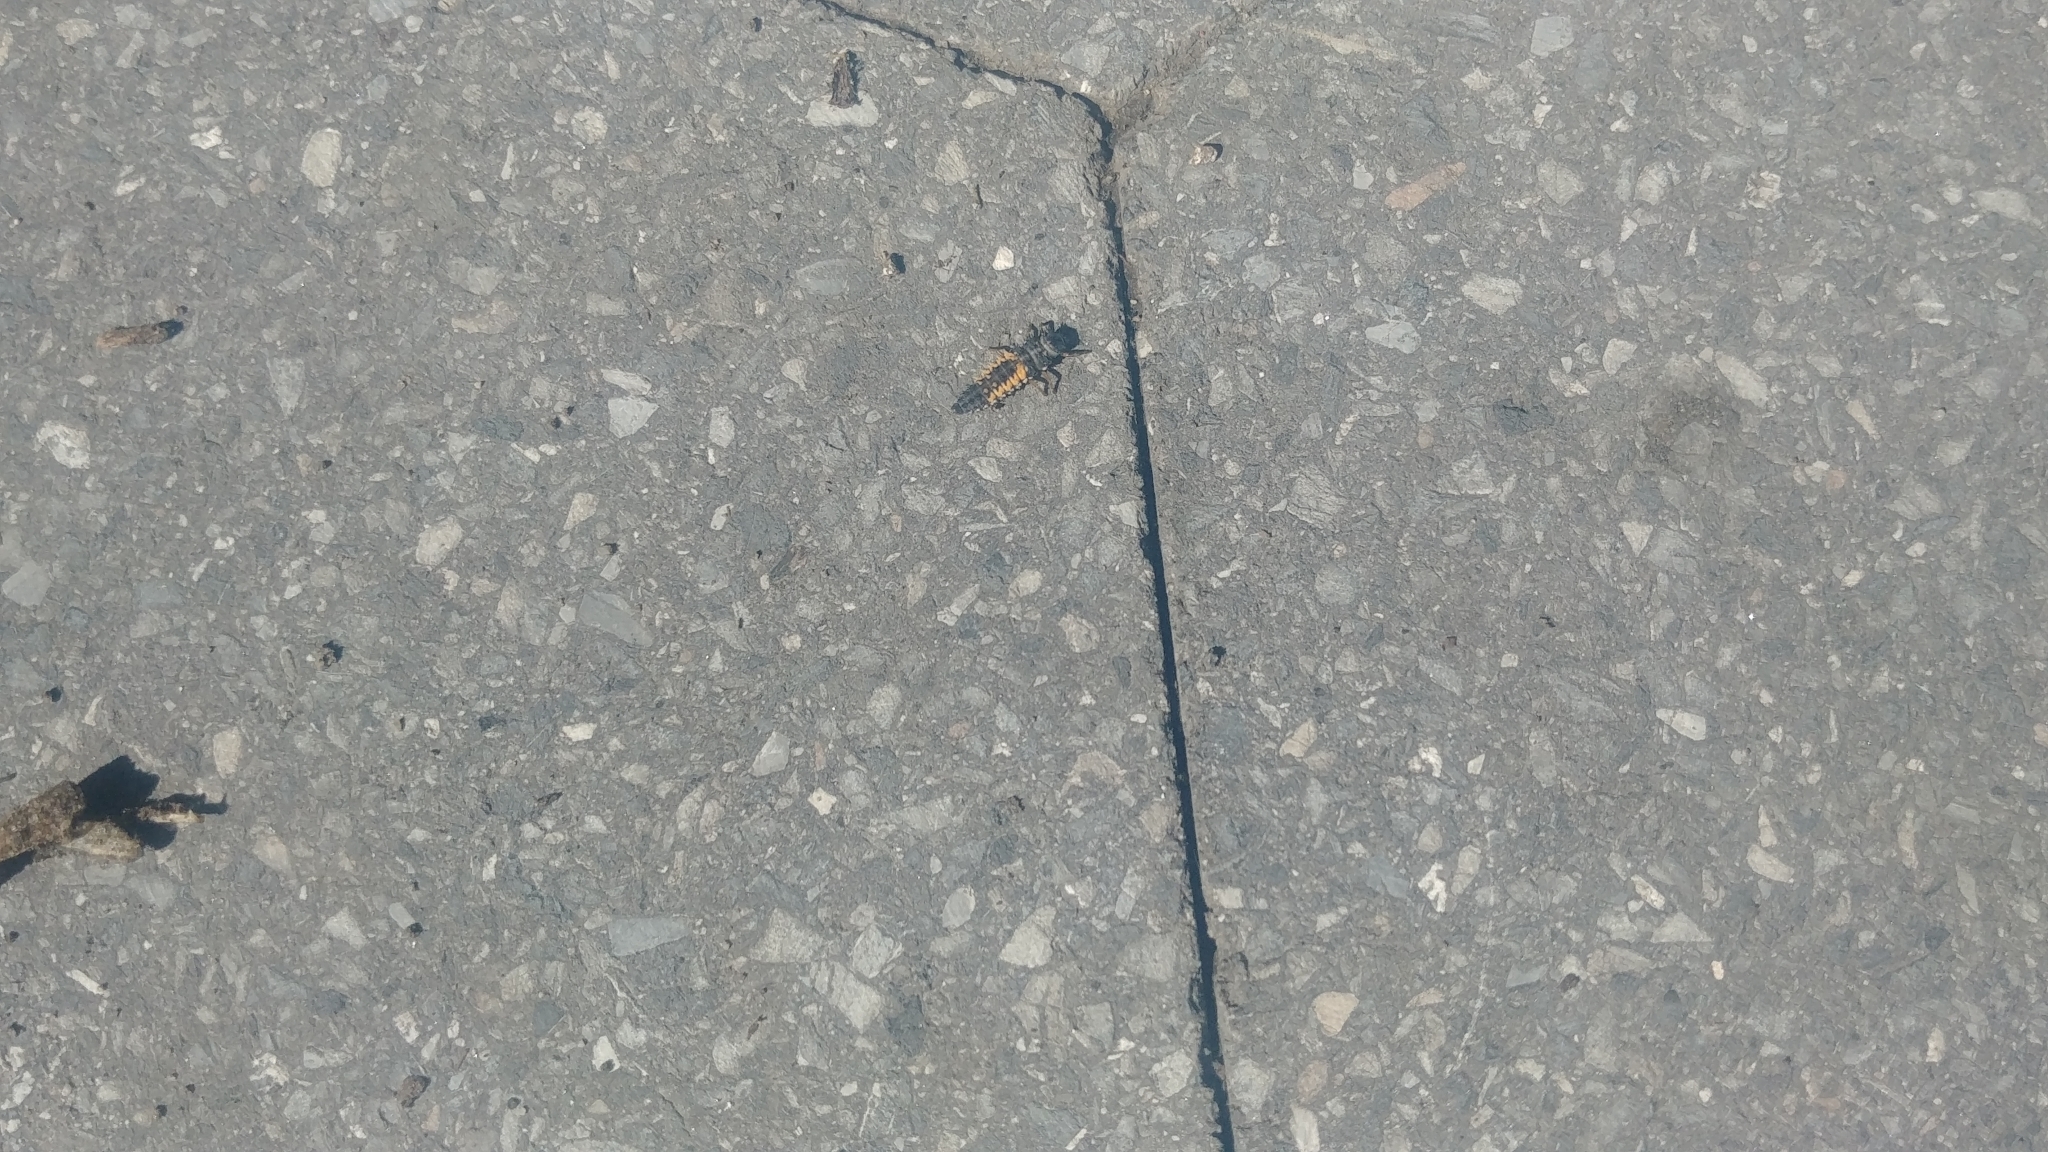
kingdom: Animalia
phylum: Arthropoda
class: Insecta
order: Coleoptera
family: Coccinellidae
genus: Harmonia
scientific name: Harmonia axyridis
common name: Harlequin ladybird
